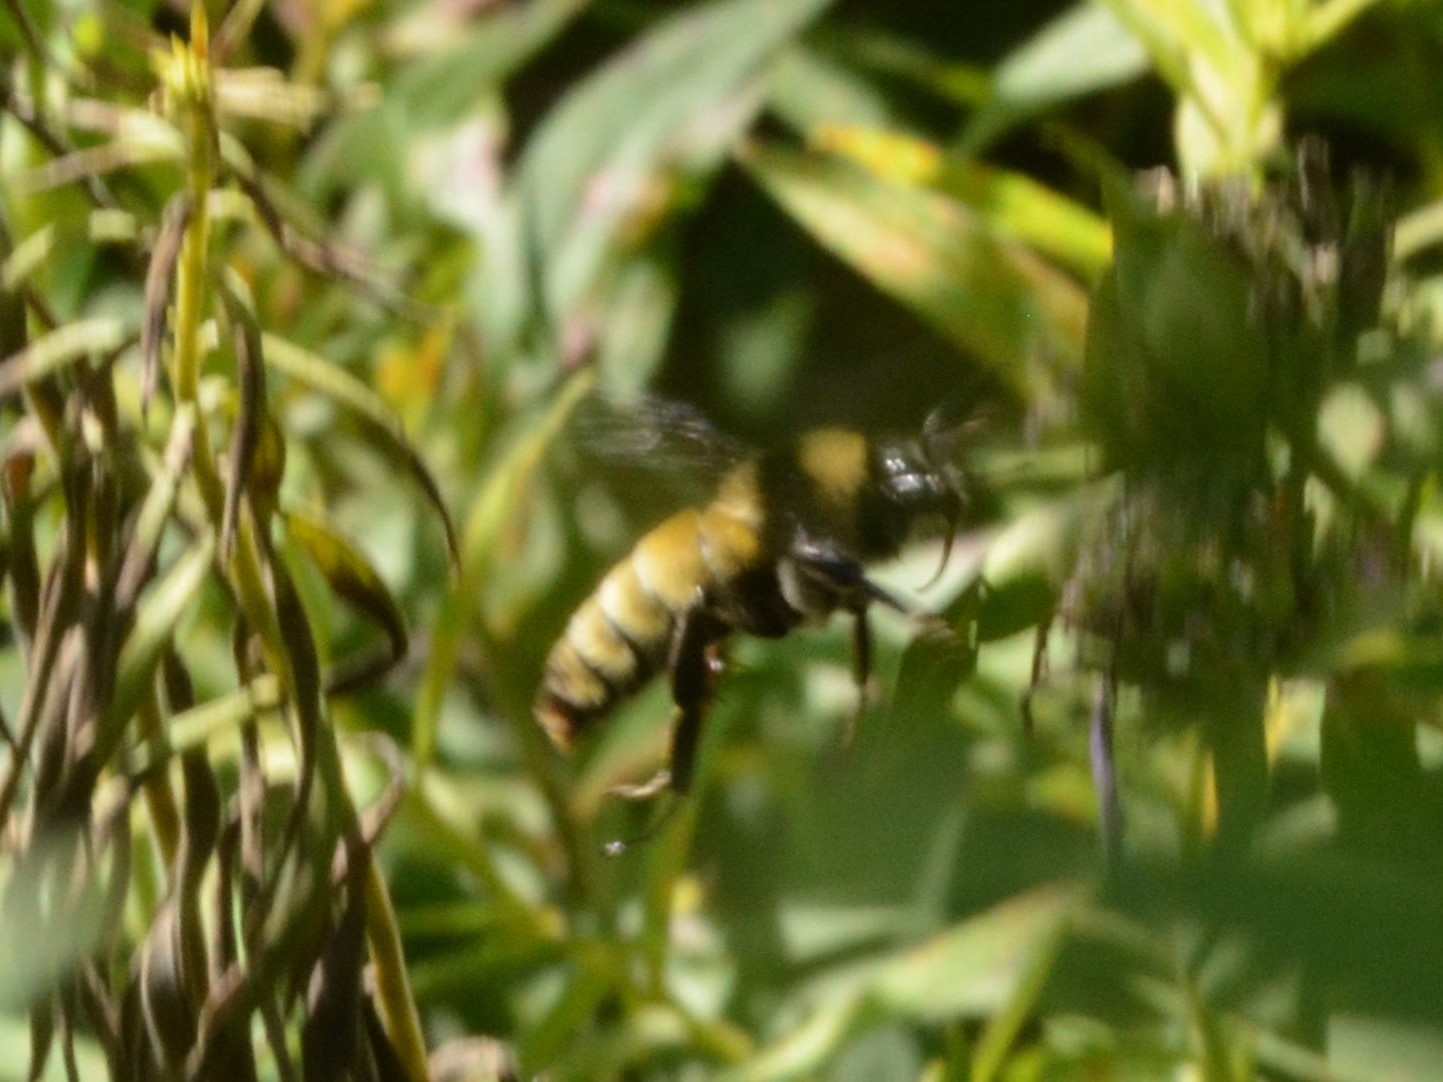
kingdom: Animalia
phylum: Arthropoda
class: Insecta
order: Hymenoptera
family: Apidae
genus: Bombus
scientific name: Bombus pensylvanicus
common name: Bumble bee
